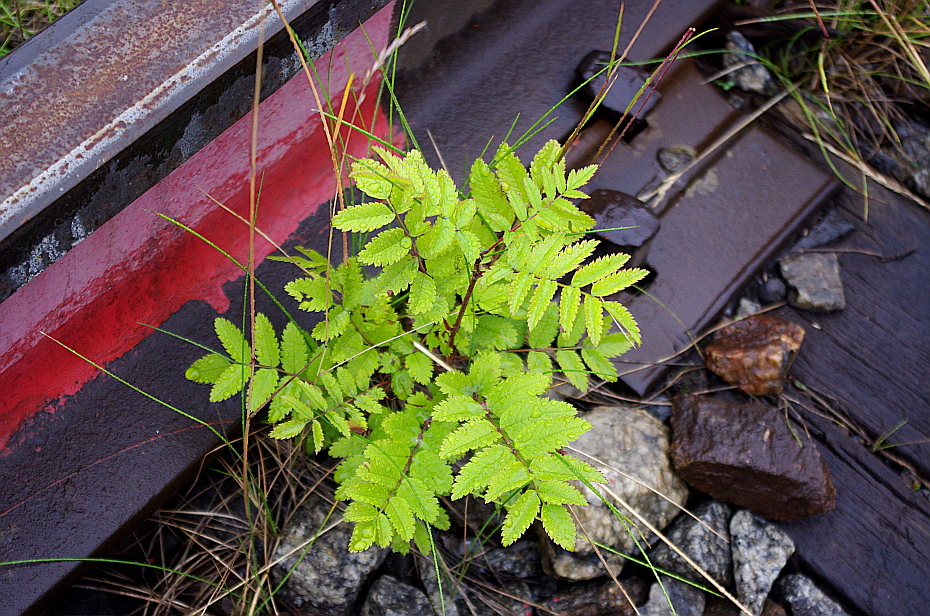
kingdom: Plantae
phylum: Tracheophyta
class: Magnoliopsida
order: Rosales
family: Rosaceae
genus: Sorbus
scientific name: Sorbus aucuparia
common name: Rowan
